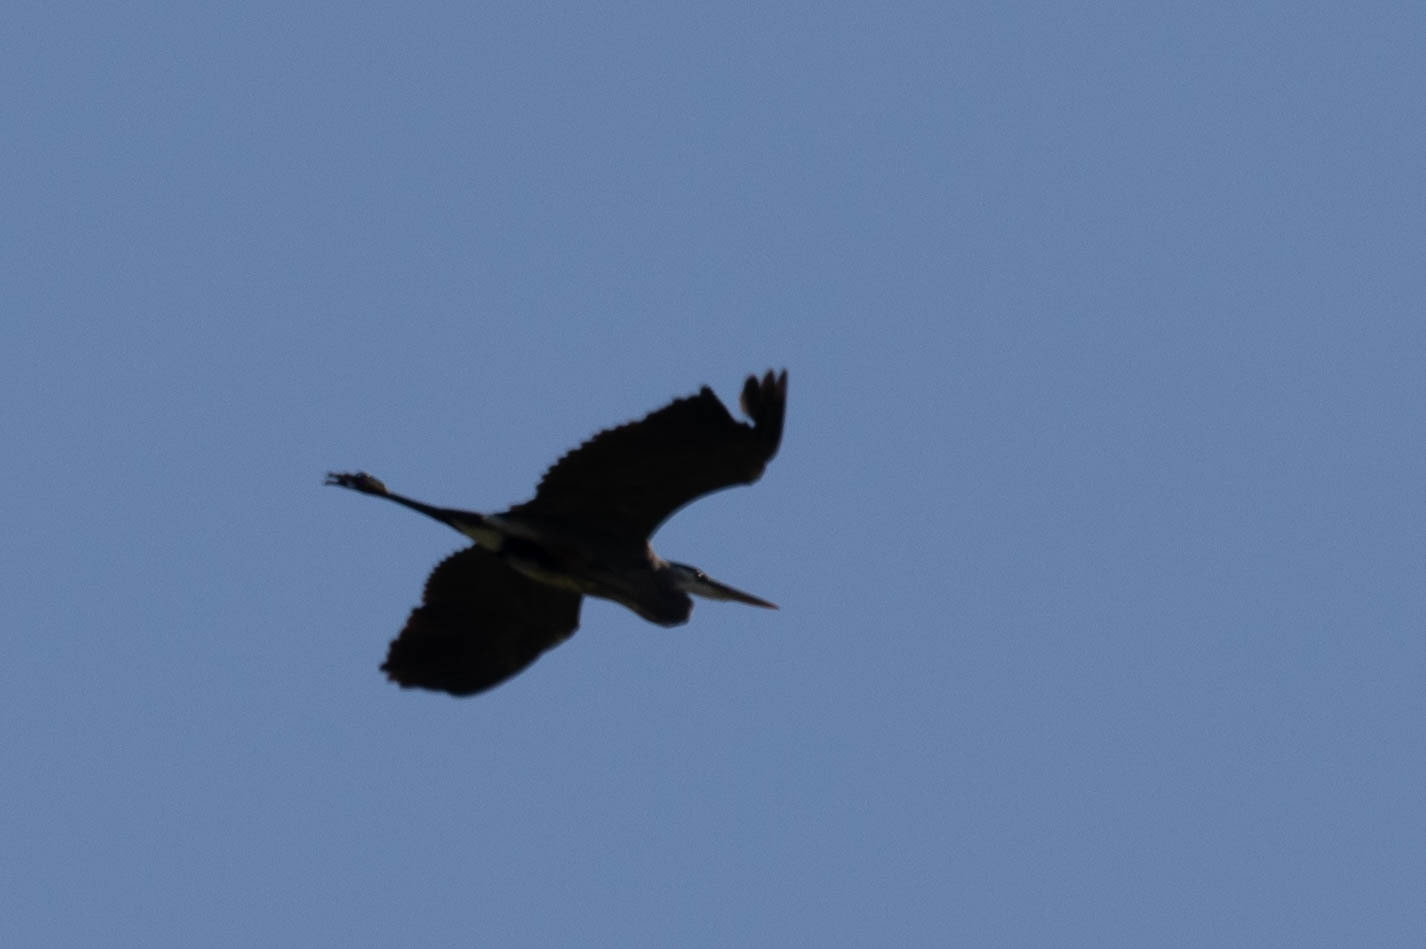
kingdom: Animalia
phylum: Chordata
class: Aves
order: Pelecaniformes
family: Ardeidae
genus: Ardea
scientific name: Ardea herodias
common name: Great blue heron
